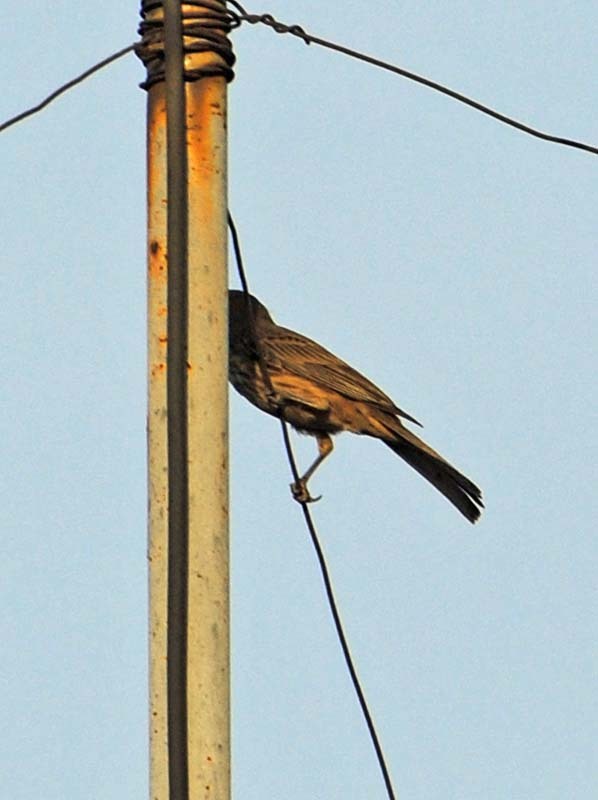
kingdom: Animalia
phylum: Chordata
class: Aves
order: Passeriformes
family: Fringillidae
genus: Haemorhous
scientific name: Haemorhous mexicanus
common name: House finch
